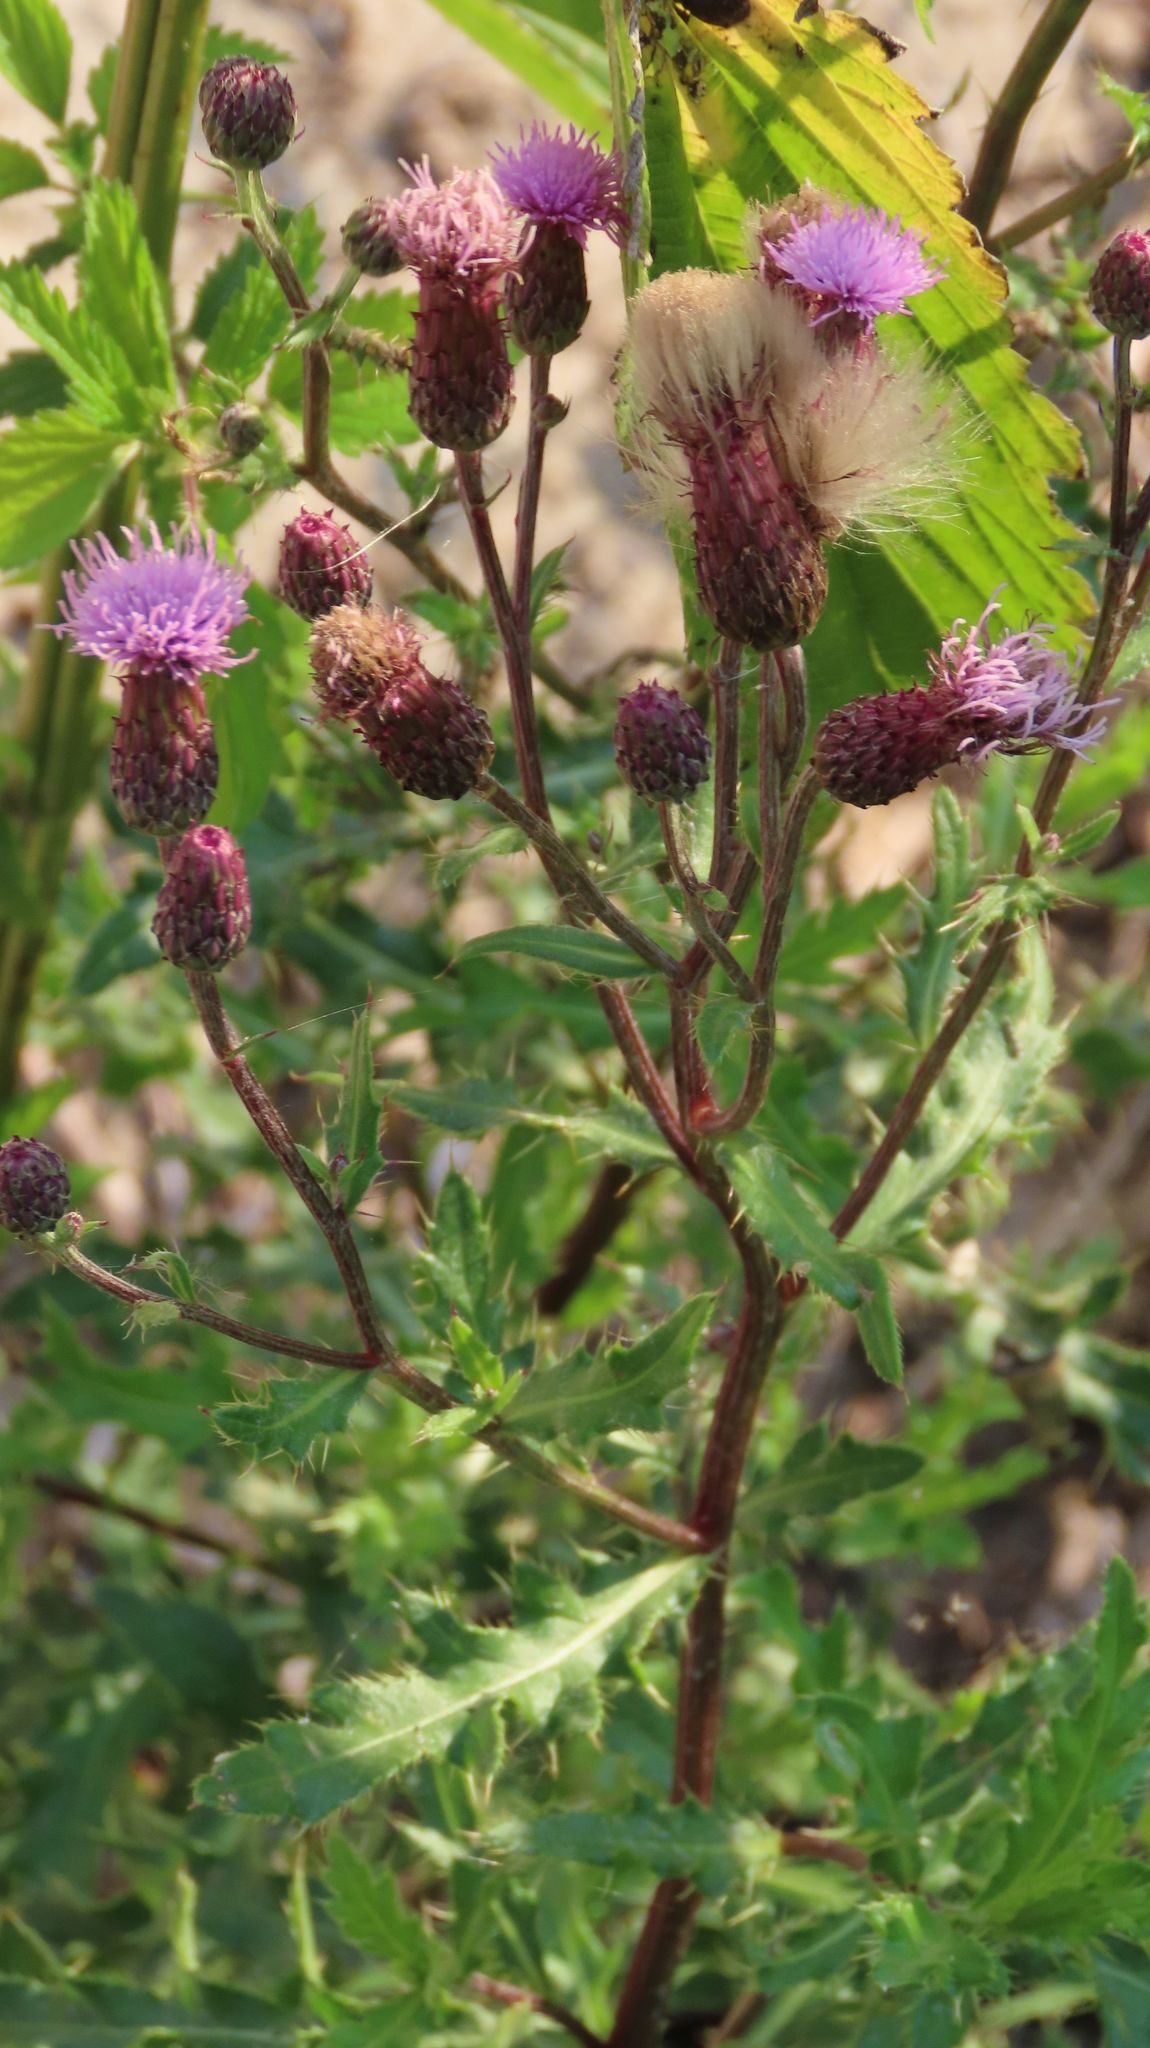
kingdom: Plantae
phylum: Tracheophyta
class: Magnoliopsida
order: Asterales
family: Asteraceae
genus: Cirsium
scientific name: Cirsium arvense
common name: Creeping thistle
